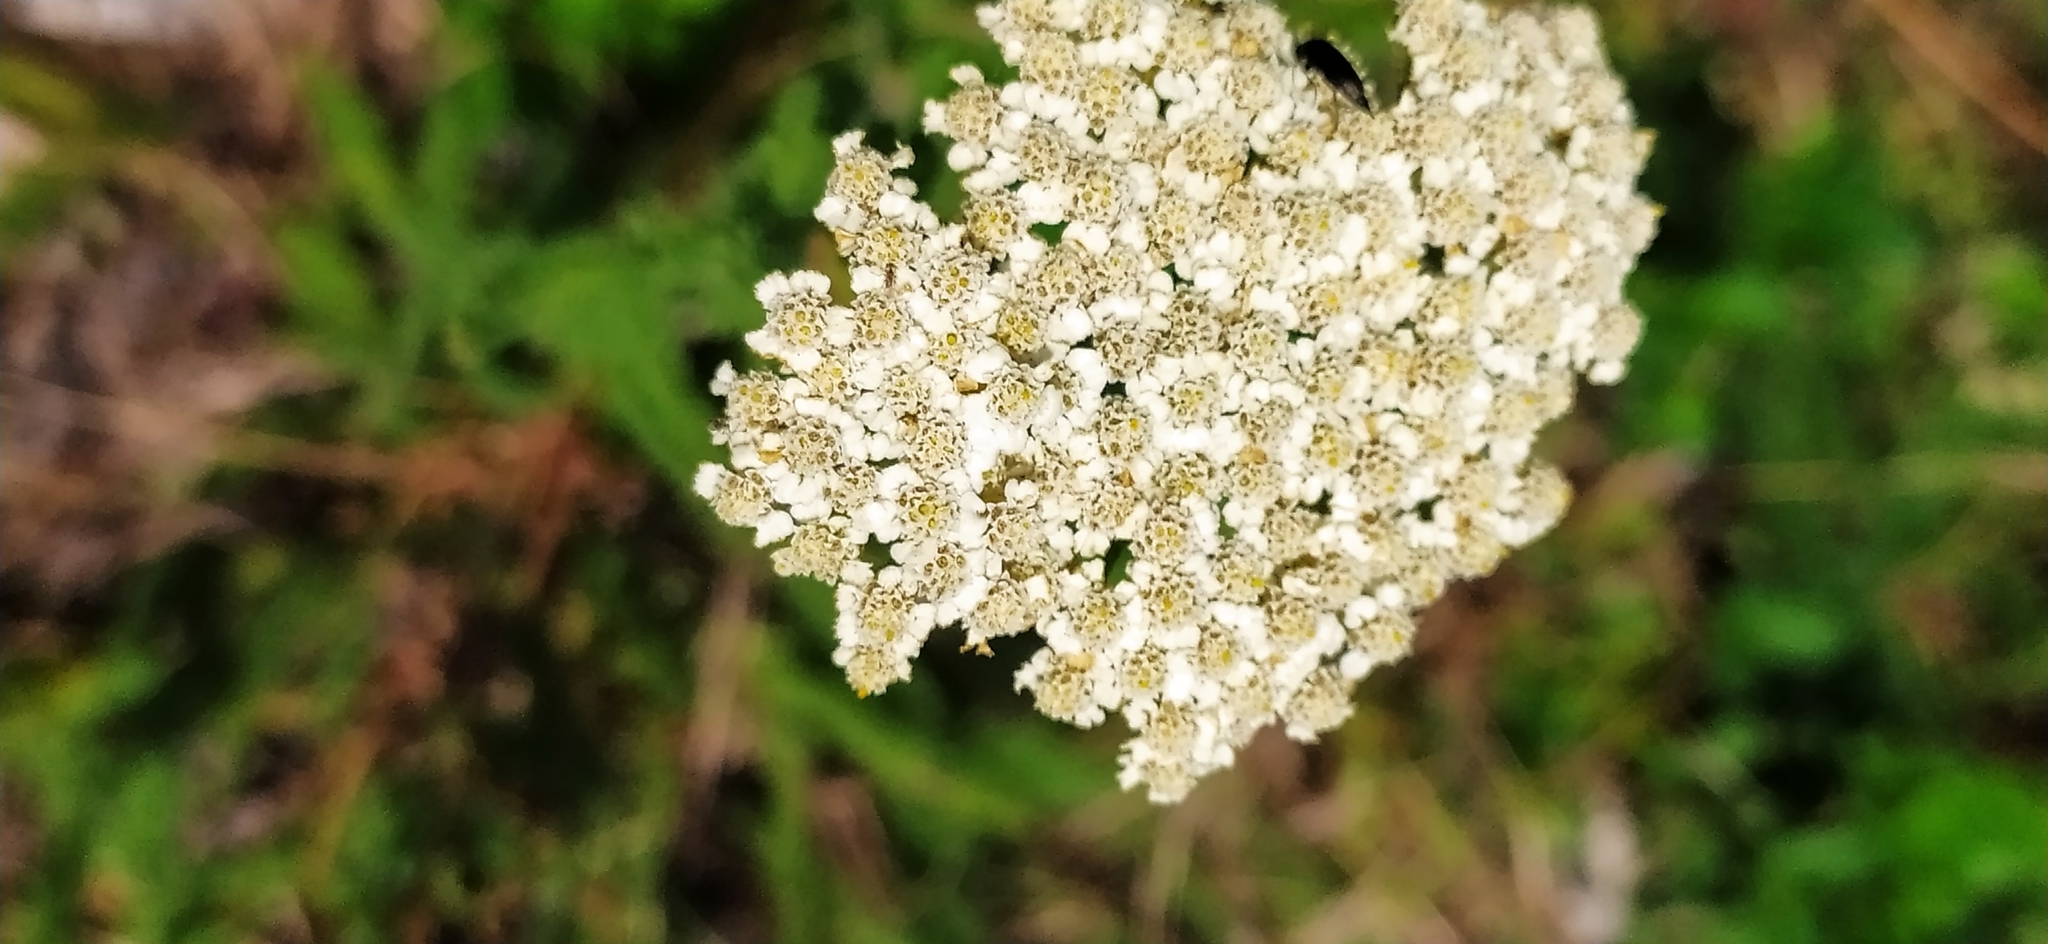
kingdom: Plantae
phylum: Tracheophyta
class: Magnoliopsida
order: Asterales
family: Asteraceae
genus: Achillea
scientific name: Achillea setacea
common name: Bristly yarrow
